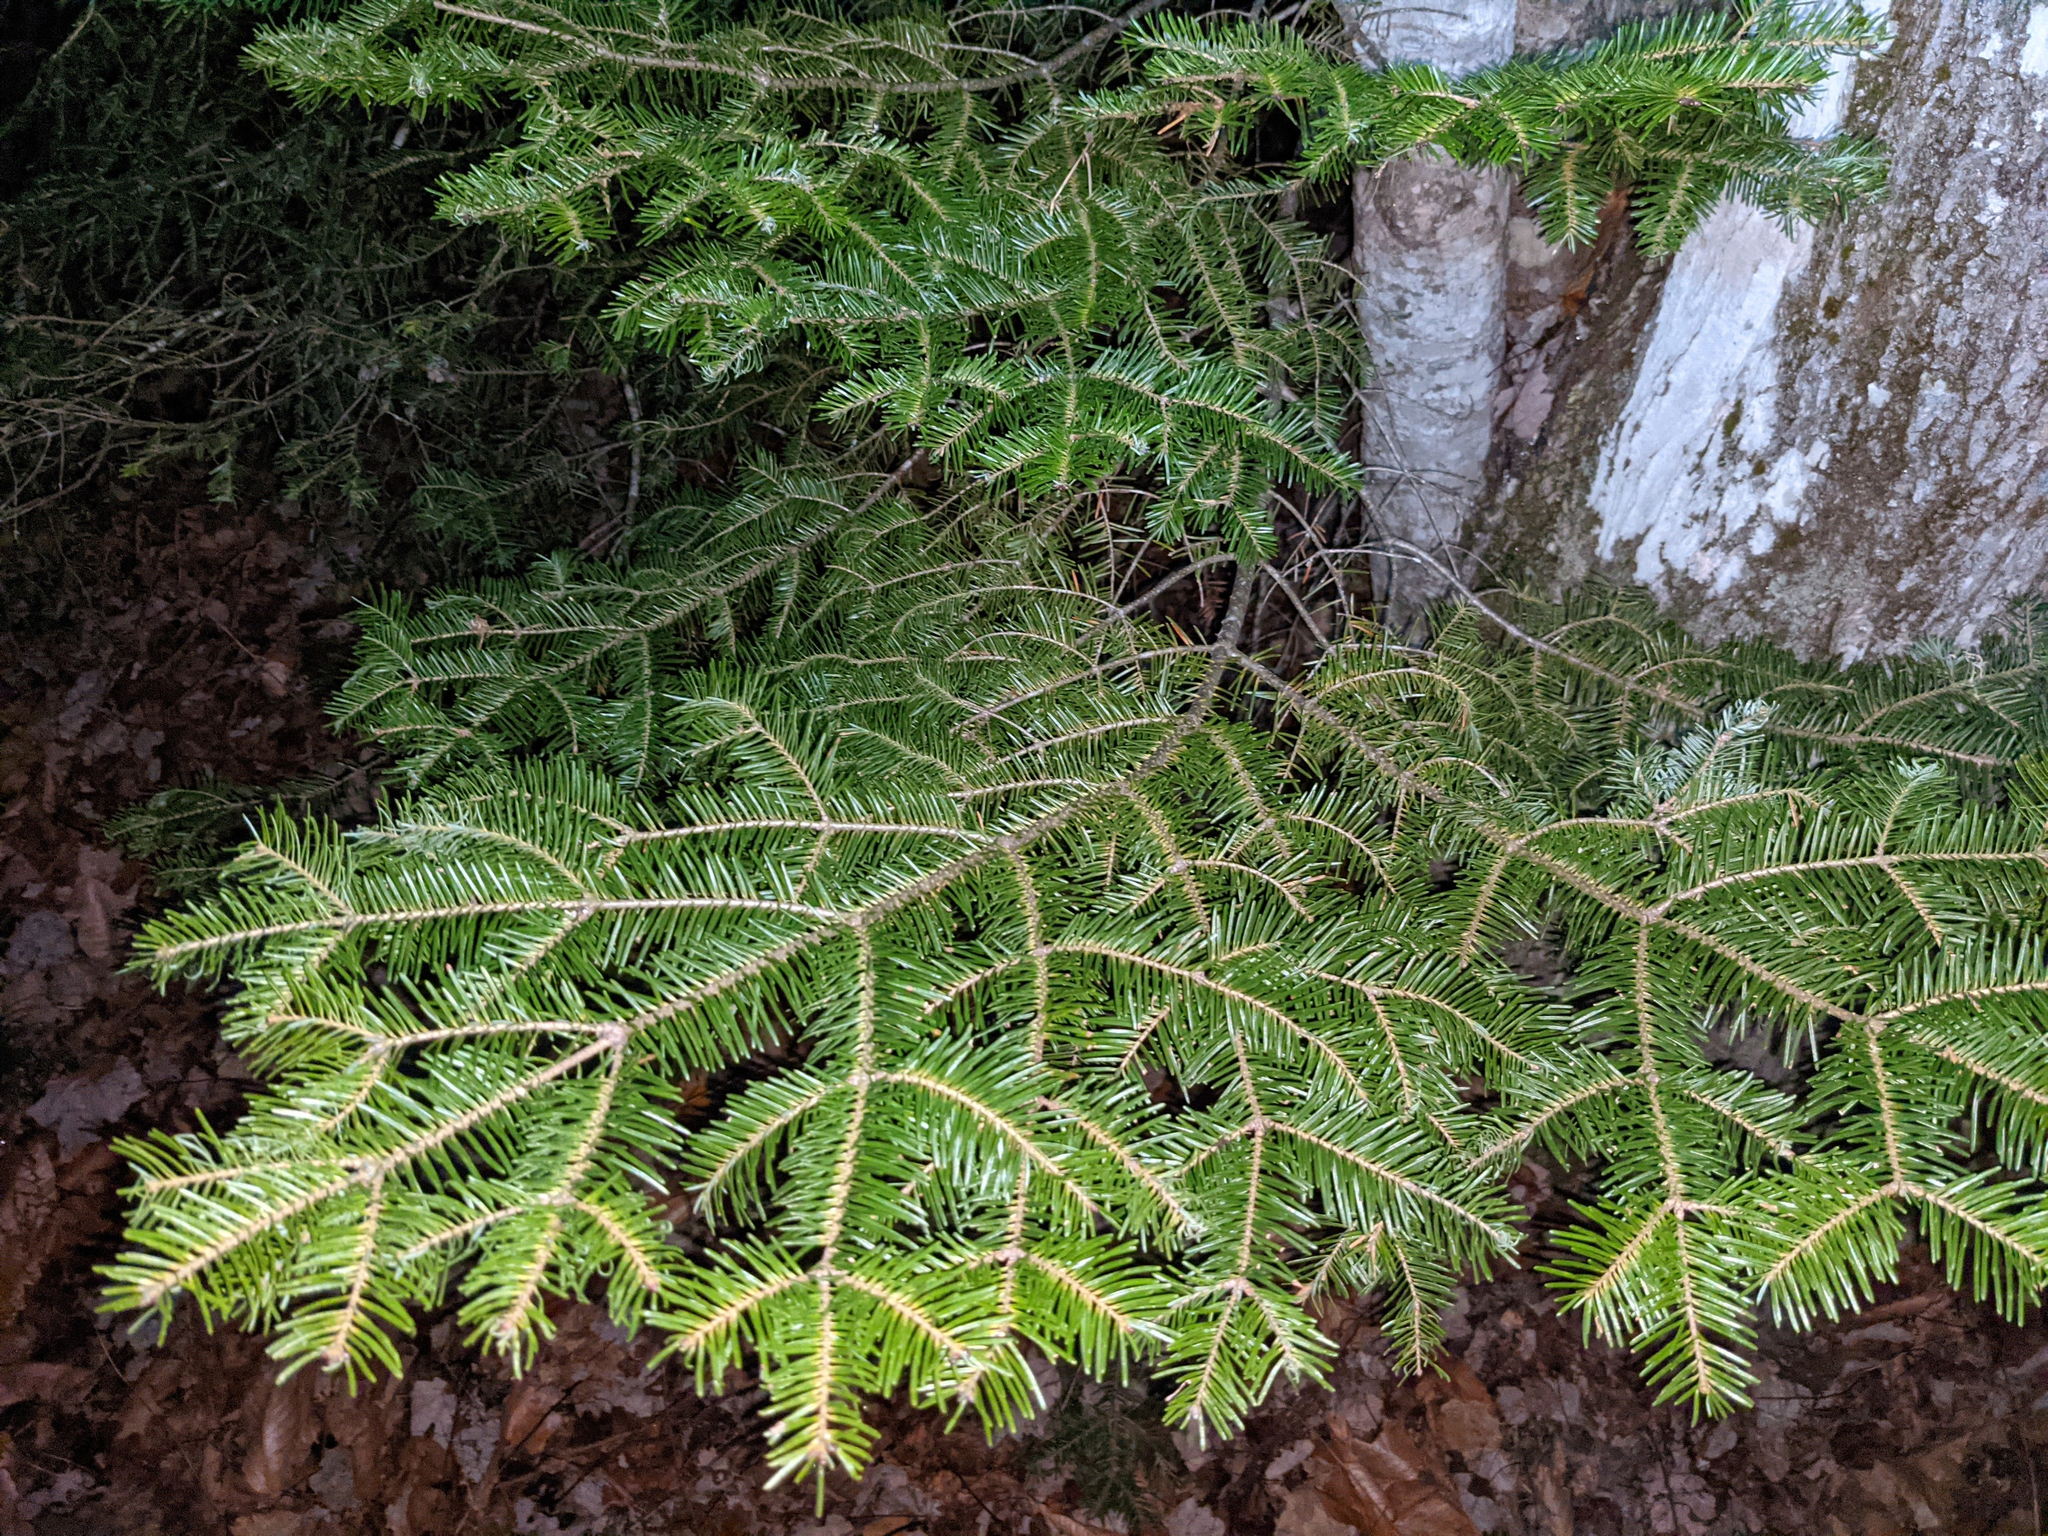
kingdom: Plantae
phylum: Tracheophyta
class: Pinopsida
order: Pinales
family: Pinaceae
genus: Abies
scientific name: Abies balsamea
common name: Balsam fir
